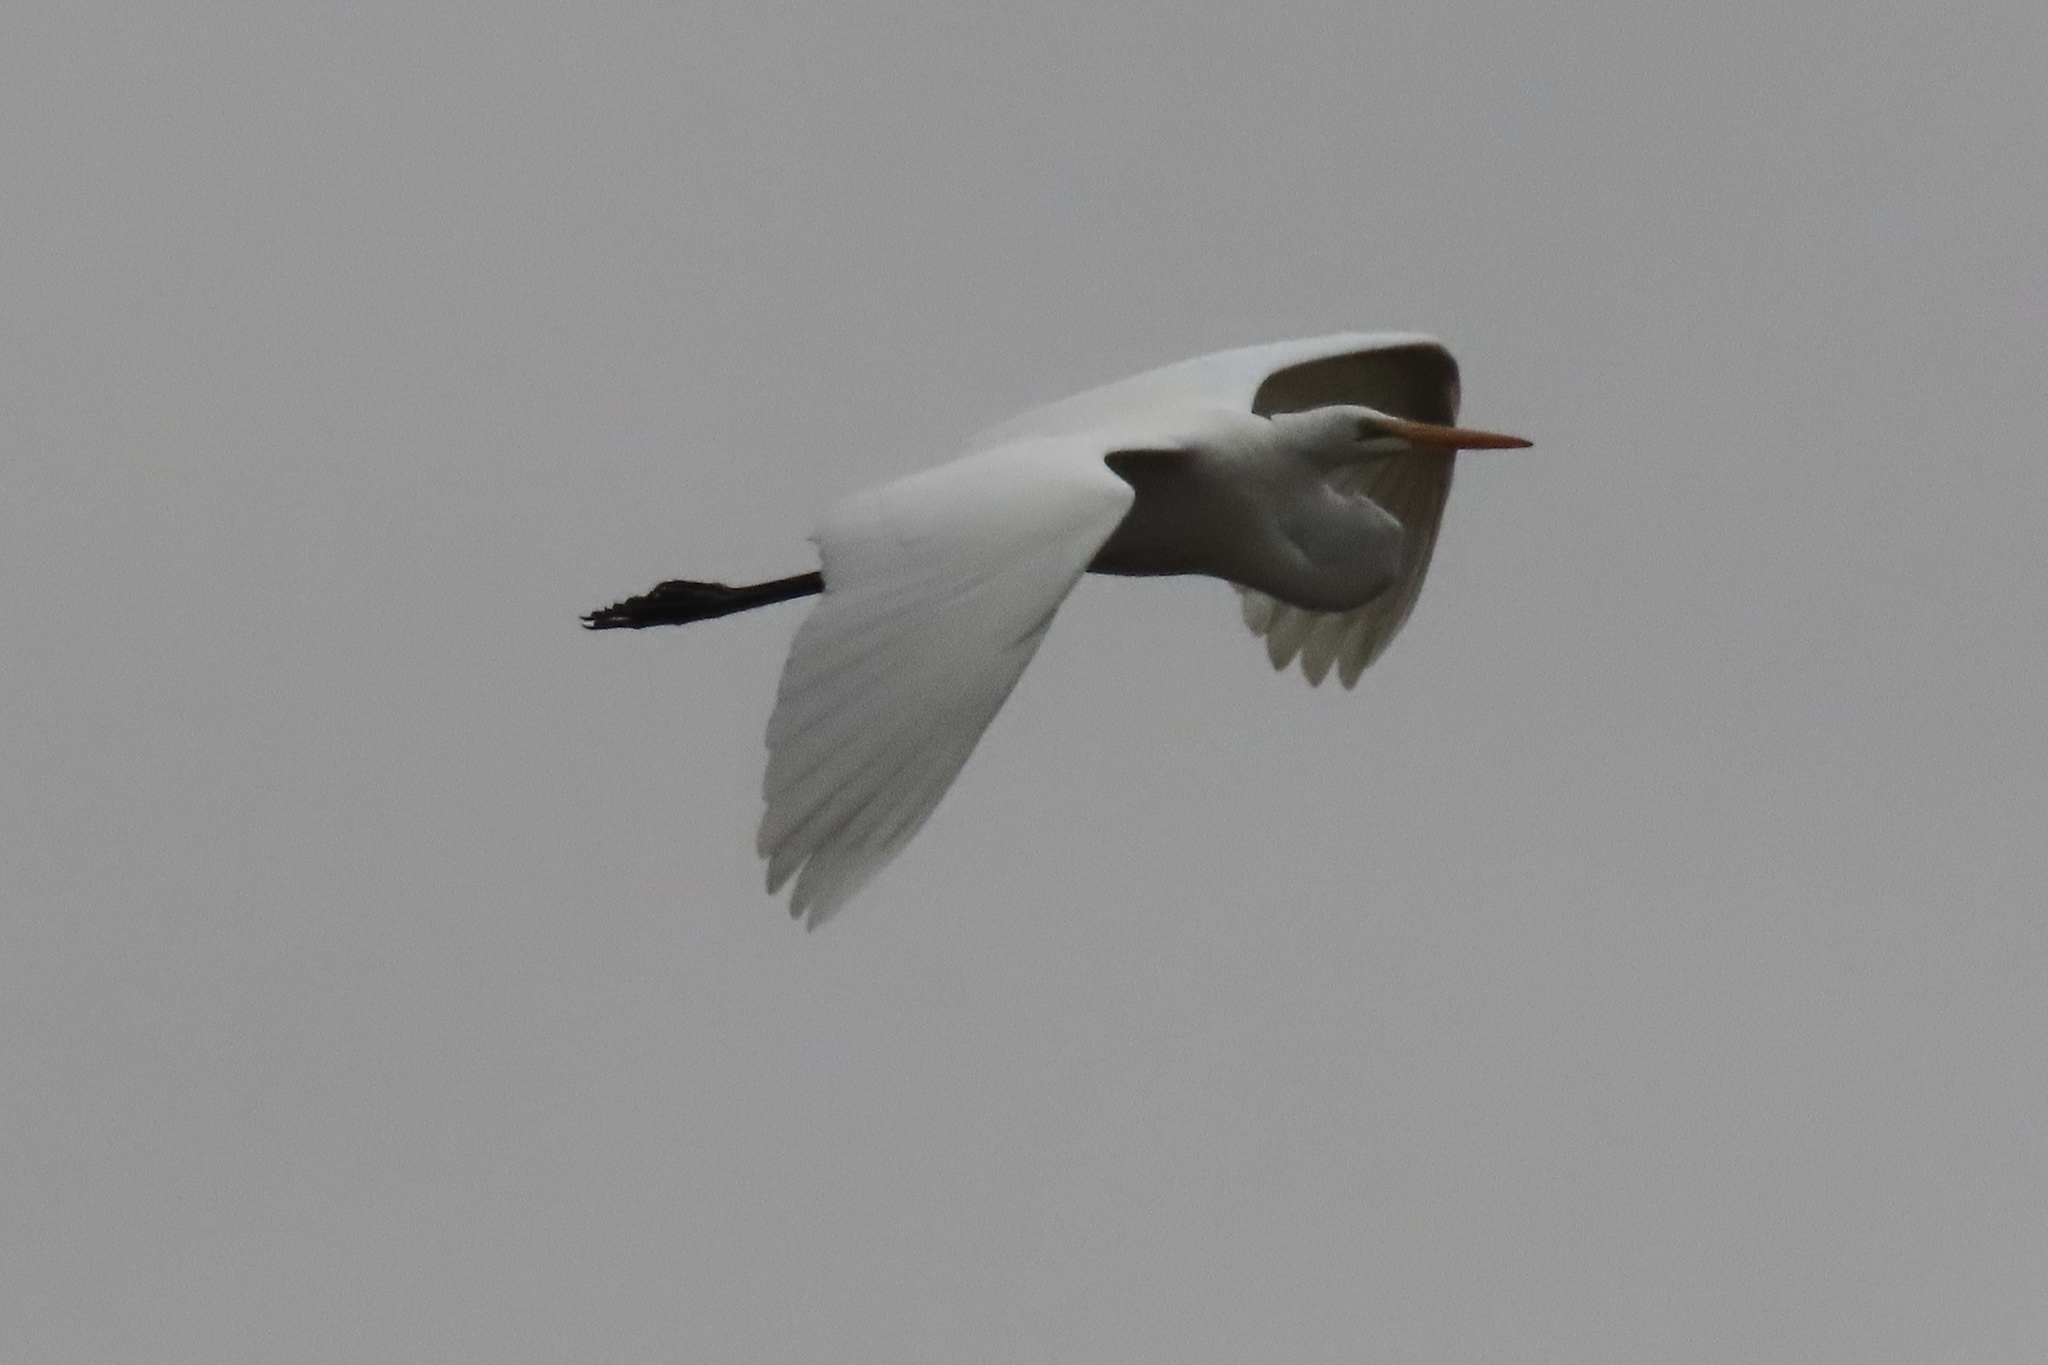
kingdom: Animalia
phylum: Chordata
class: Aves
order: Pelecaniformes
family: Ardeidae
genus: Ardea
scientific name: Ardea alba
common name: Great egret
